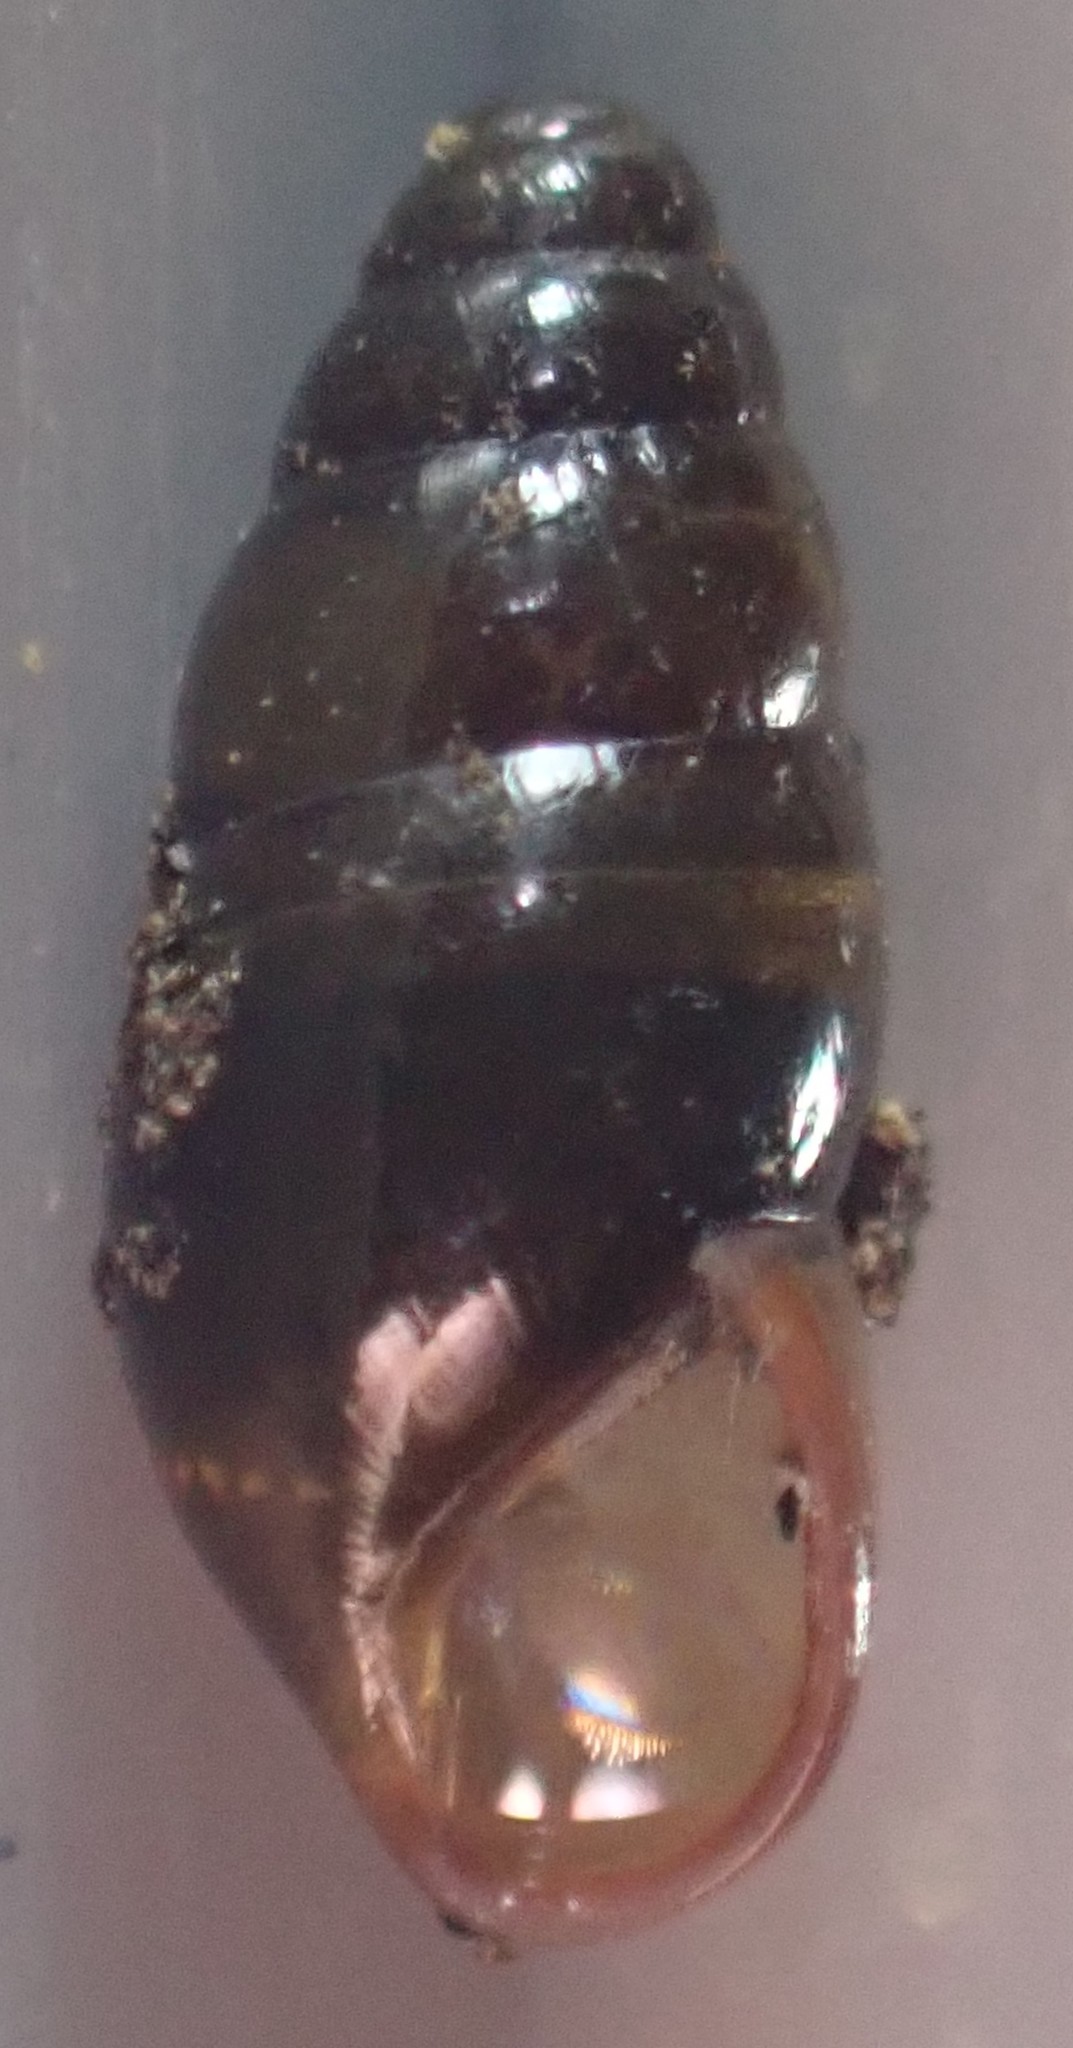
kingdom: Animalia
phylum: Mollusca
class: Gastropoda
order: Stylommatophora
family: Cochlicopidae
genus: Cochlicopa
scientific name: Cochlicopa lubrica
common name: Glossy pillar snail
